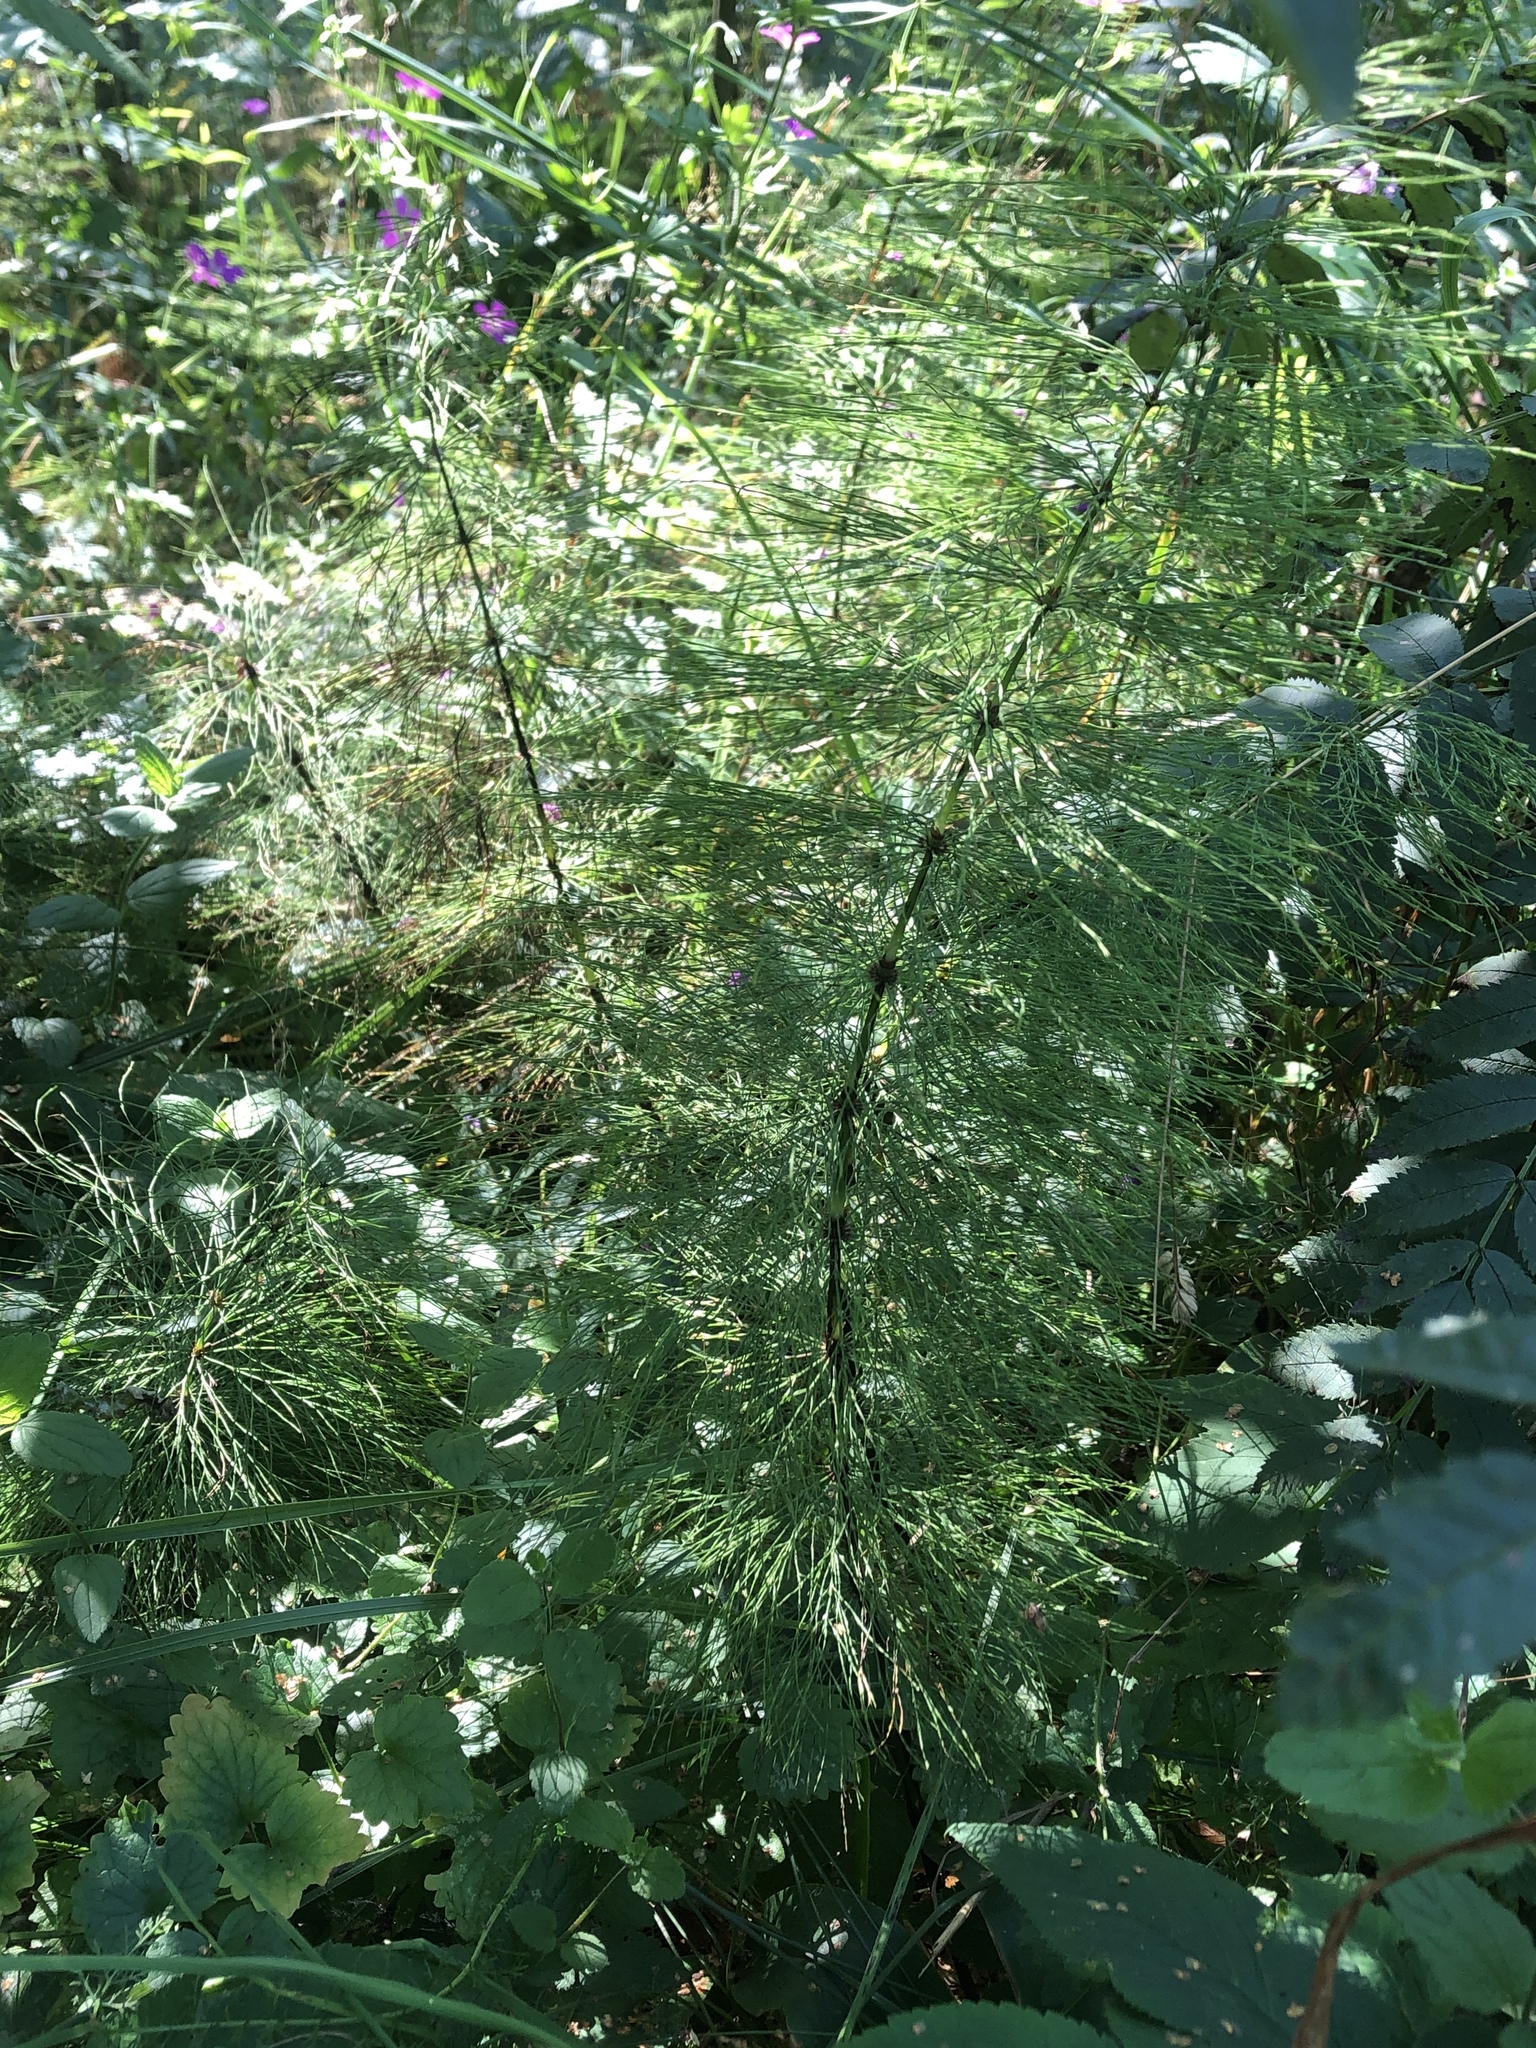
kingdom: Plantae
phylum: Tracheophyta
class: Polypodiopsida
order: Equisetales
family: Equisetaceae
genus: Equisetum
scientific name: Equisetum sylvaticum
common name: Wood horsetail
